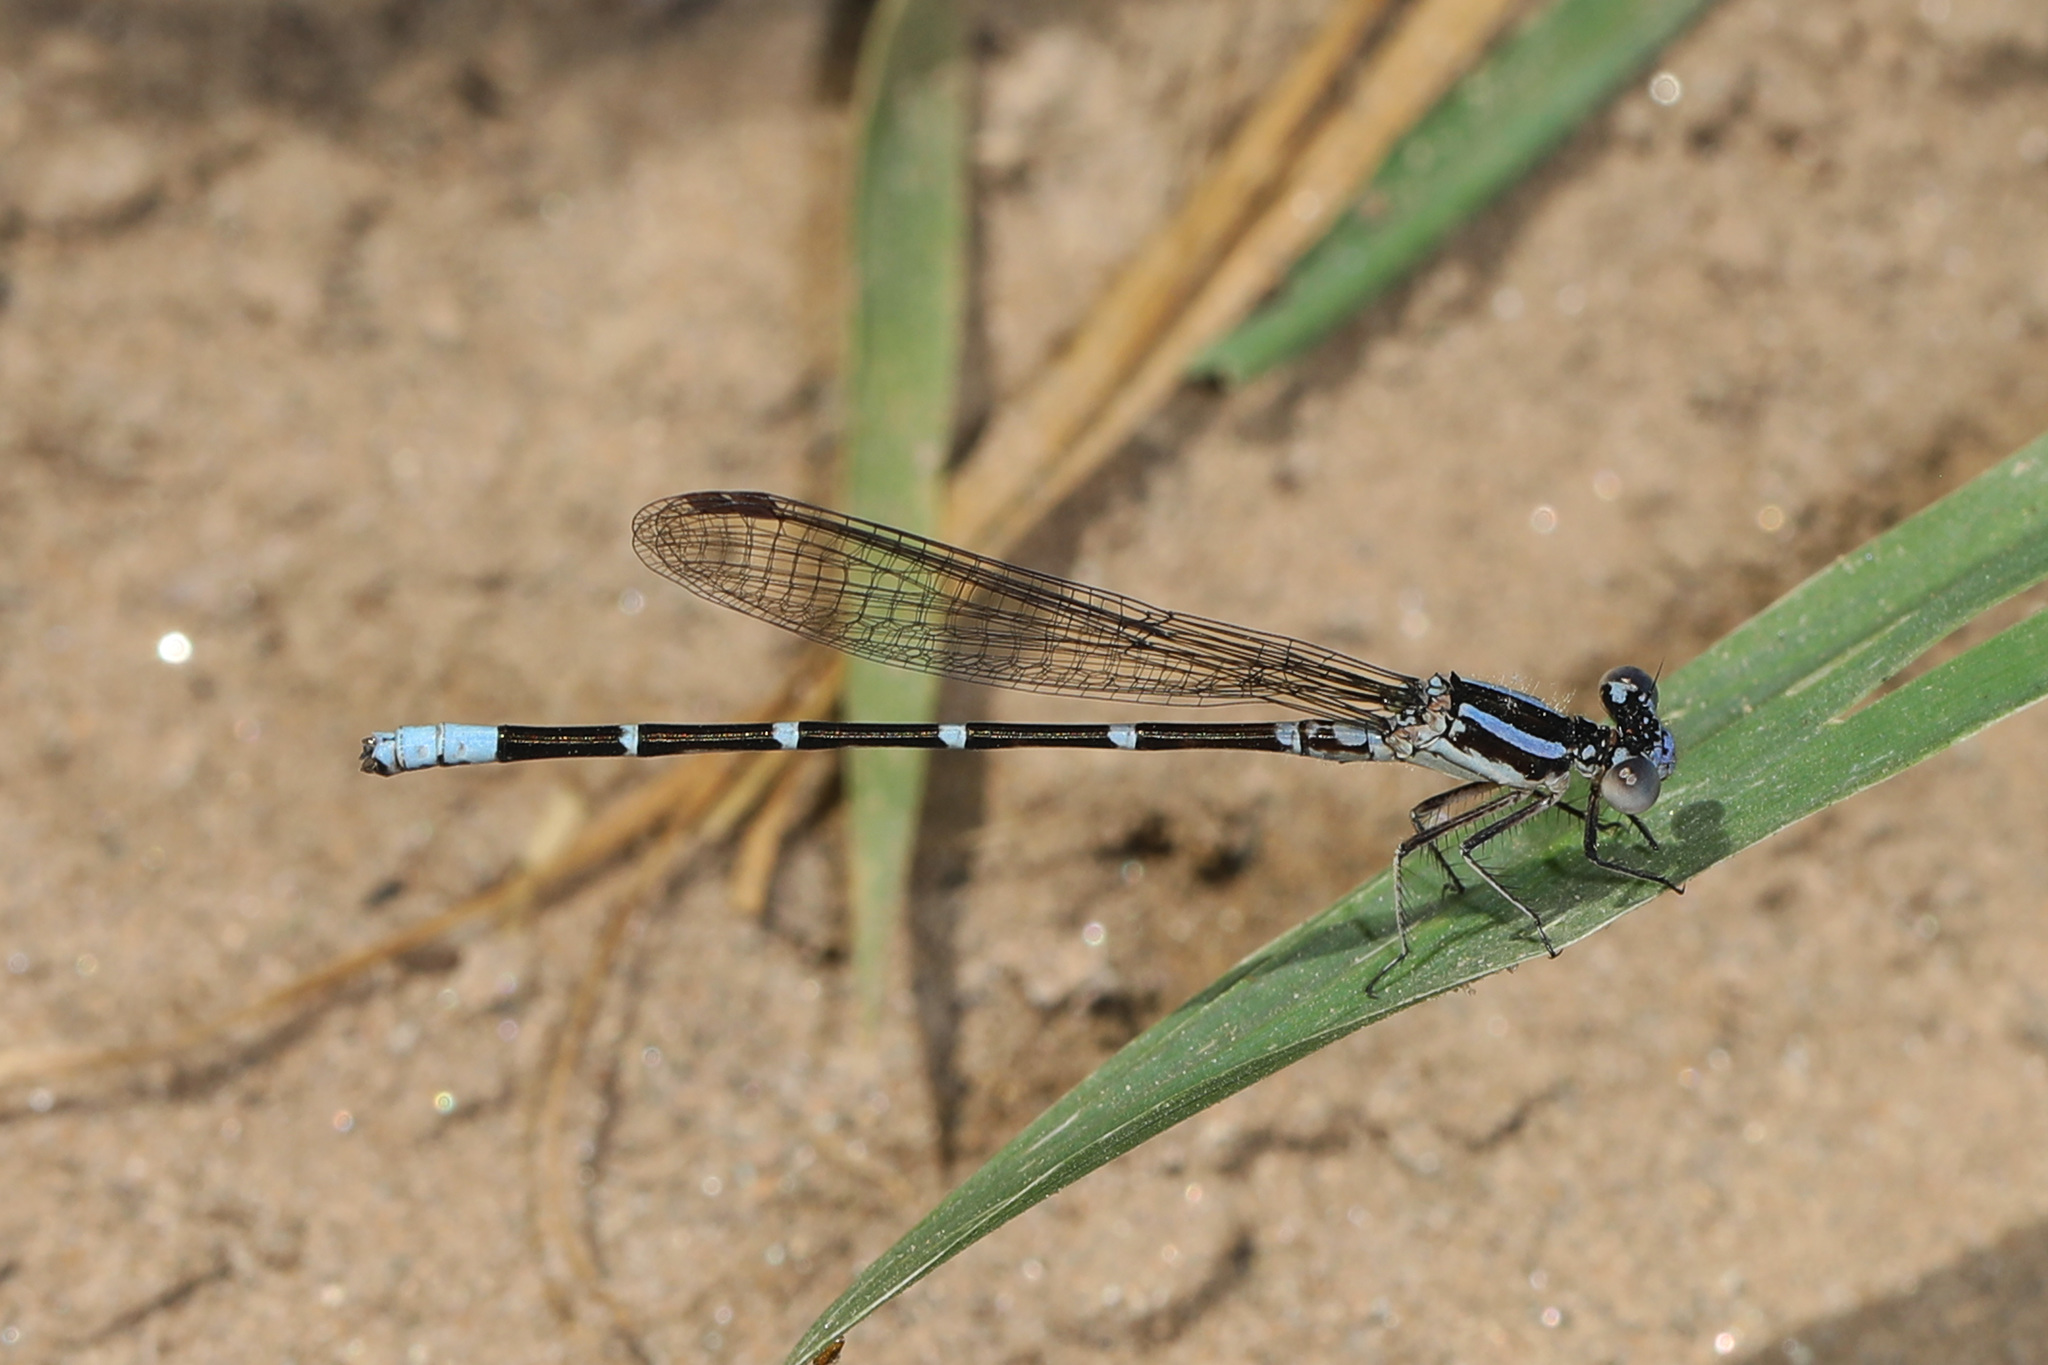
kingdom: Animalia
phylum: Arthropoda
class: Insecta
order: Odonata
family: Coenagrionidae
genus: Argia
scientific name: Argia sedula
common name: Blue-ringed dancer
